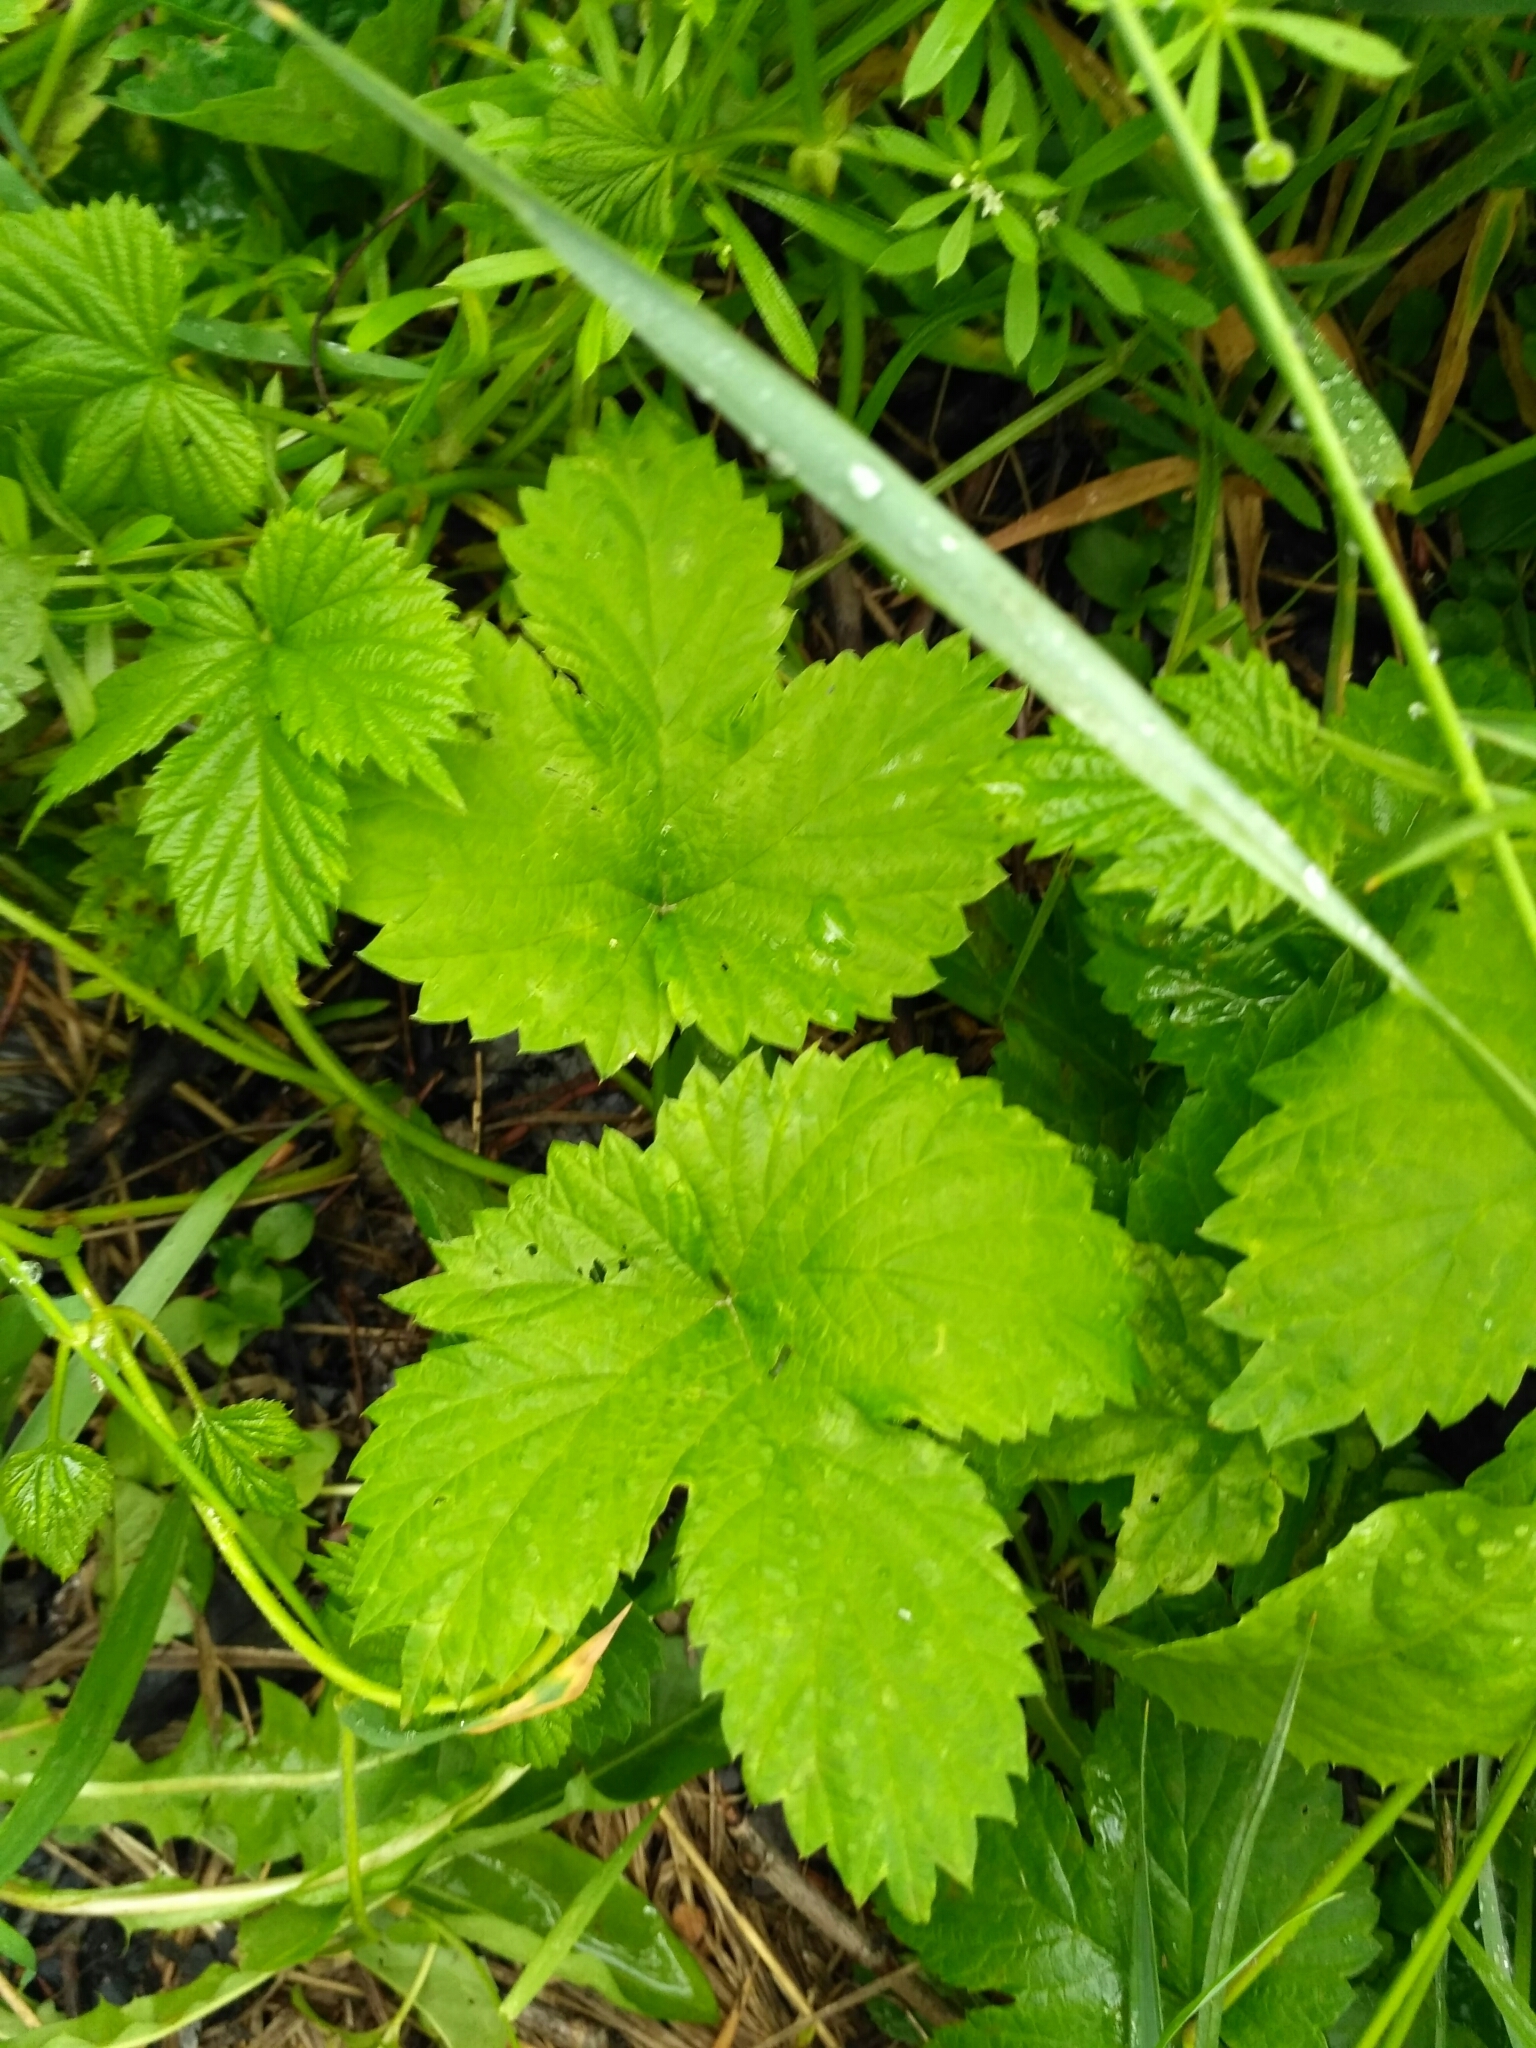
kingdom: Plantae
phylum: Tracheophyta
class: Magnoliopsida
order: Rosales
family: Cannabaceae
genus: Humulus
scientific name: Humulus lupulus
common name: Hop
